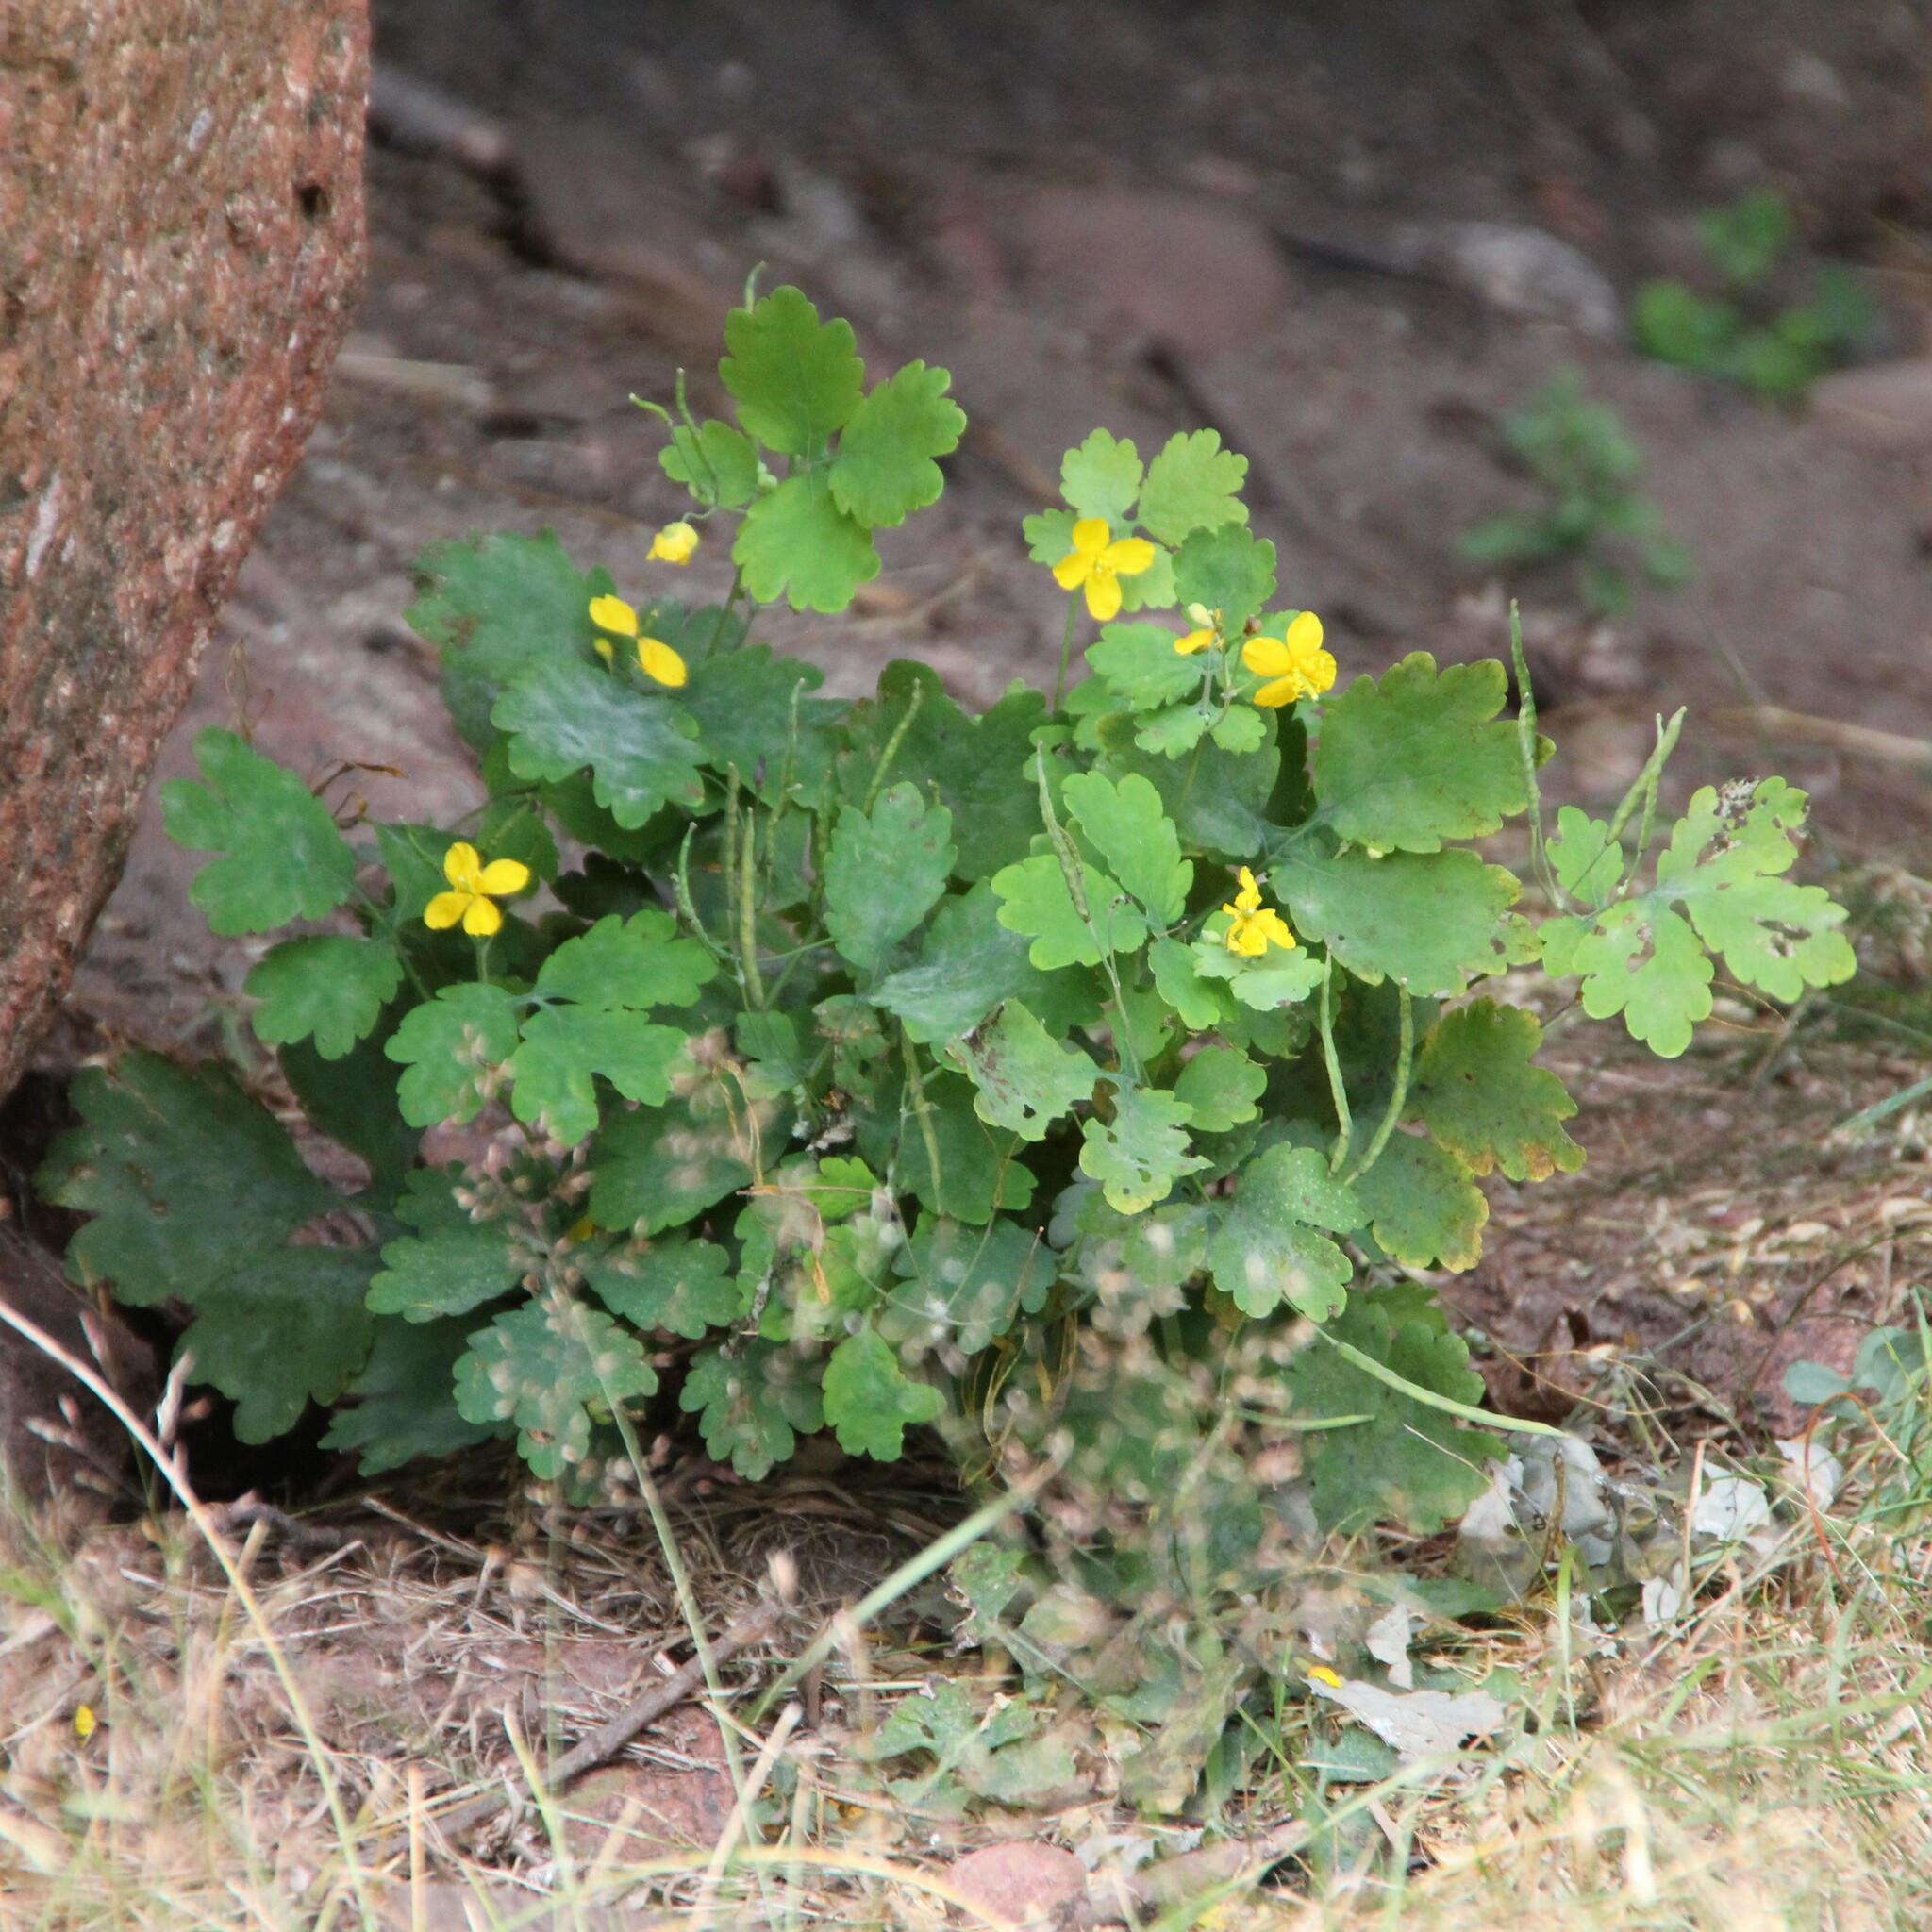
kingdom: Plantae
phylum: Tracheophyta
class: Magnoliopsida
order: Ranunculales
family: Papaveraceae
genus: Chelidonium
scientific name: Chelidonium majus
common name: Greater celandine
